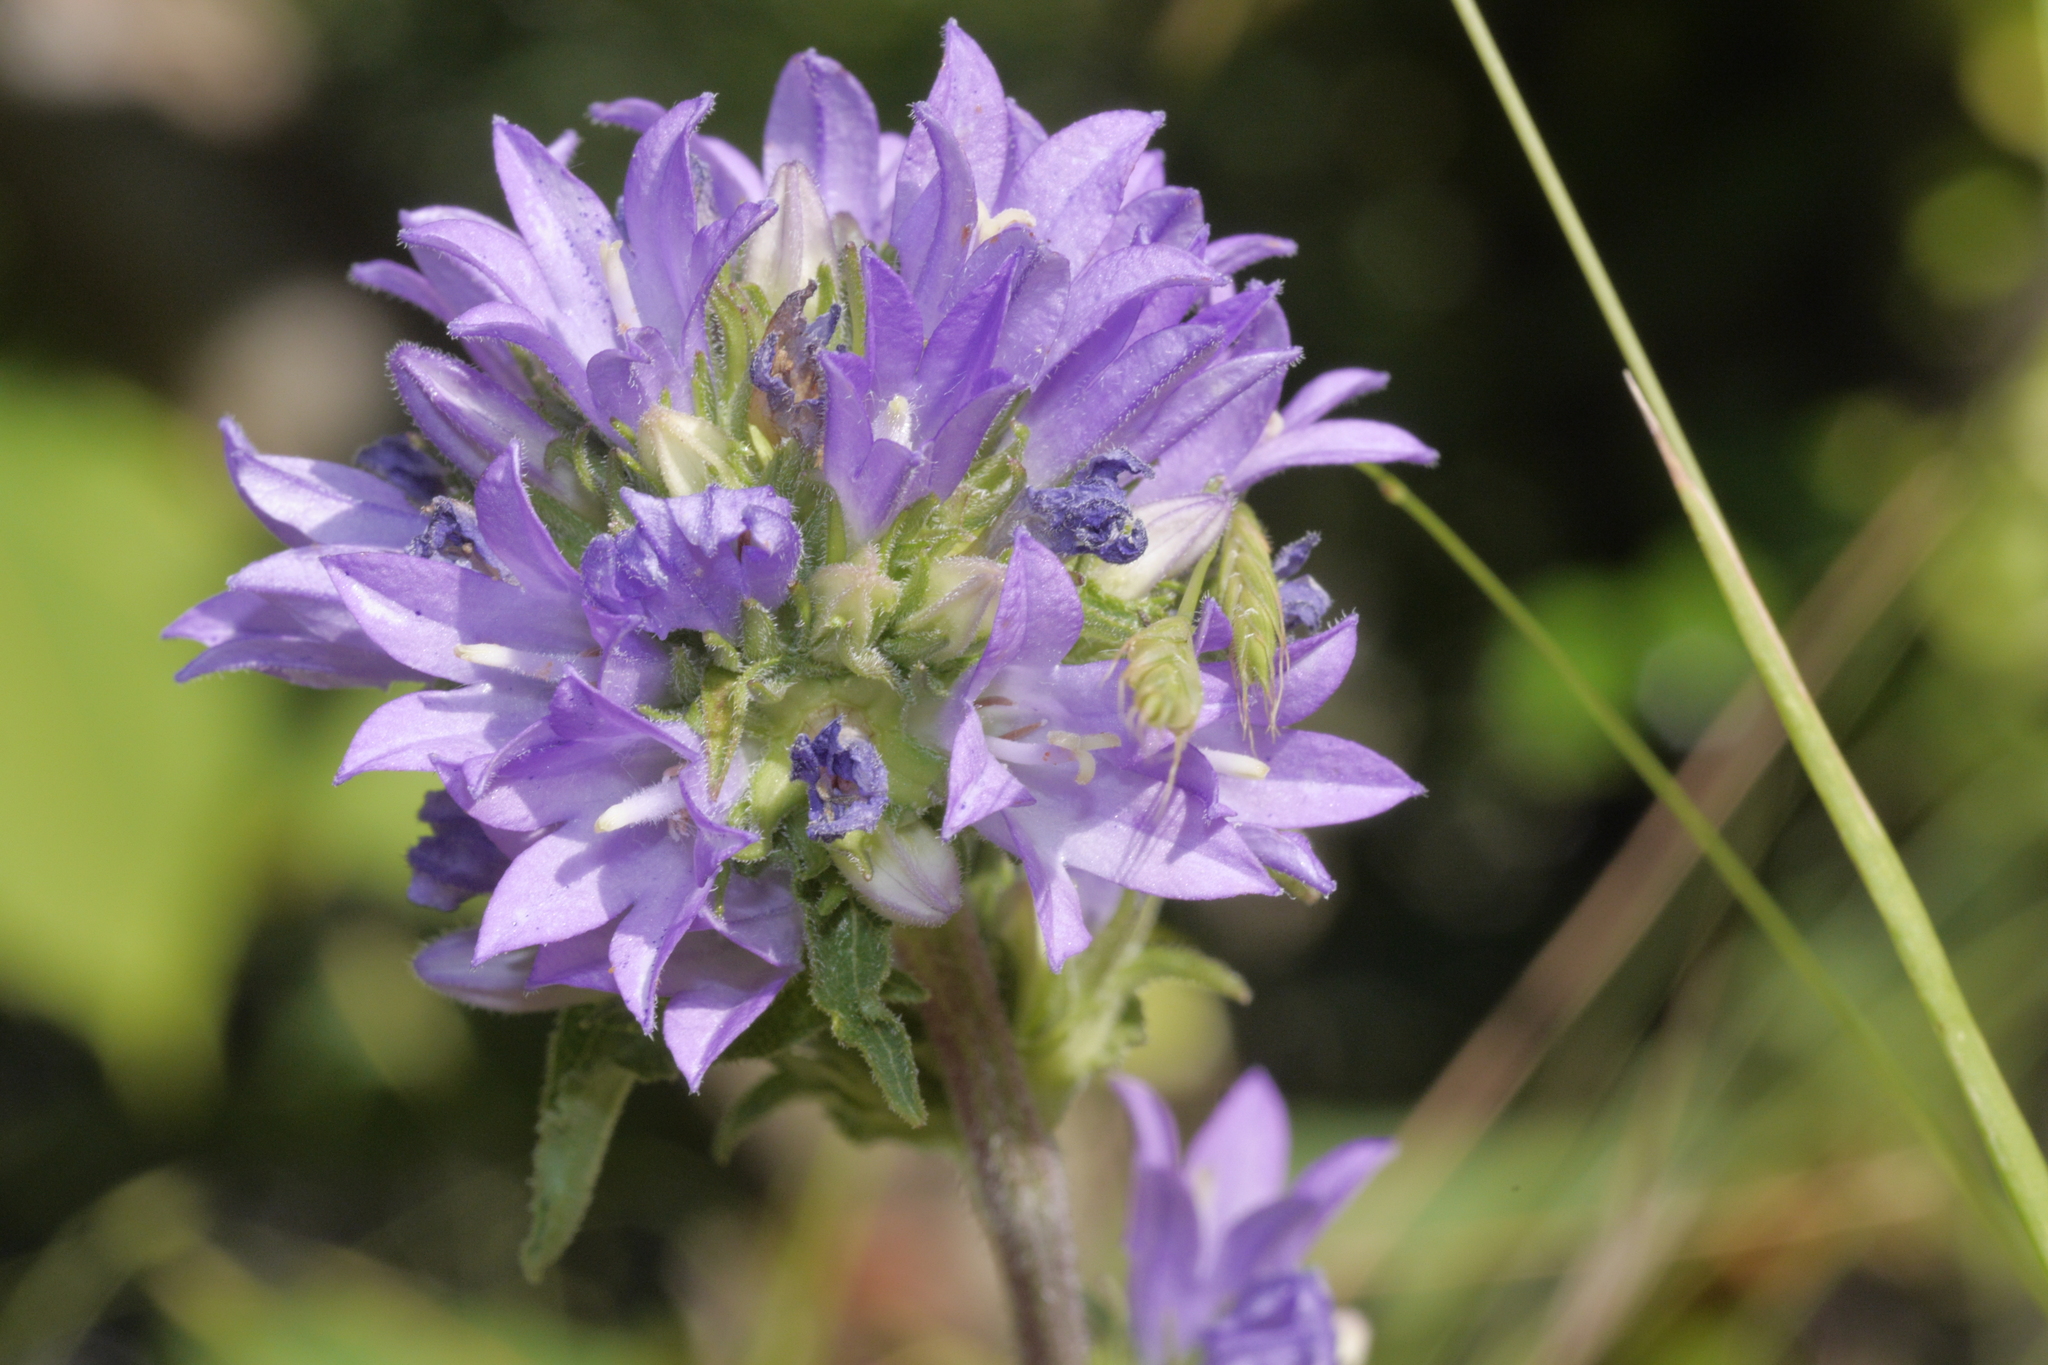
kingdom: Plantae
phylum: Tracheophyta
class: Magnoliopsida
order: Asterales
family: Campanulaceae
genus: Campanula
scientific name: Campanula glomerata
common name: Clustered bellflower
